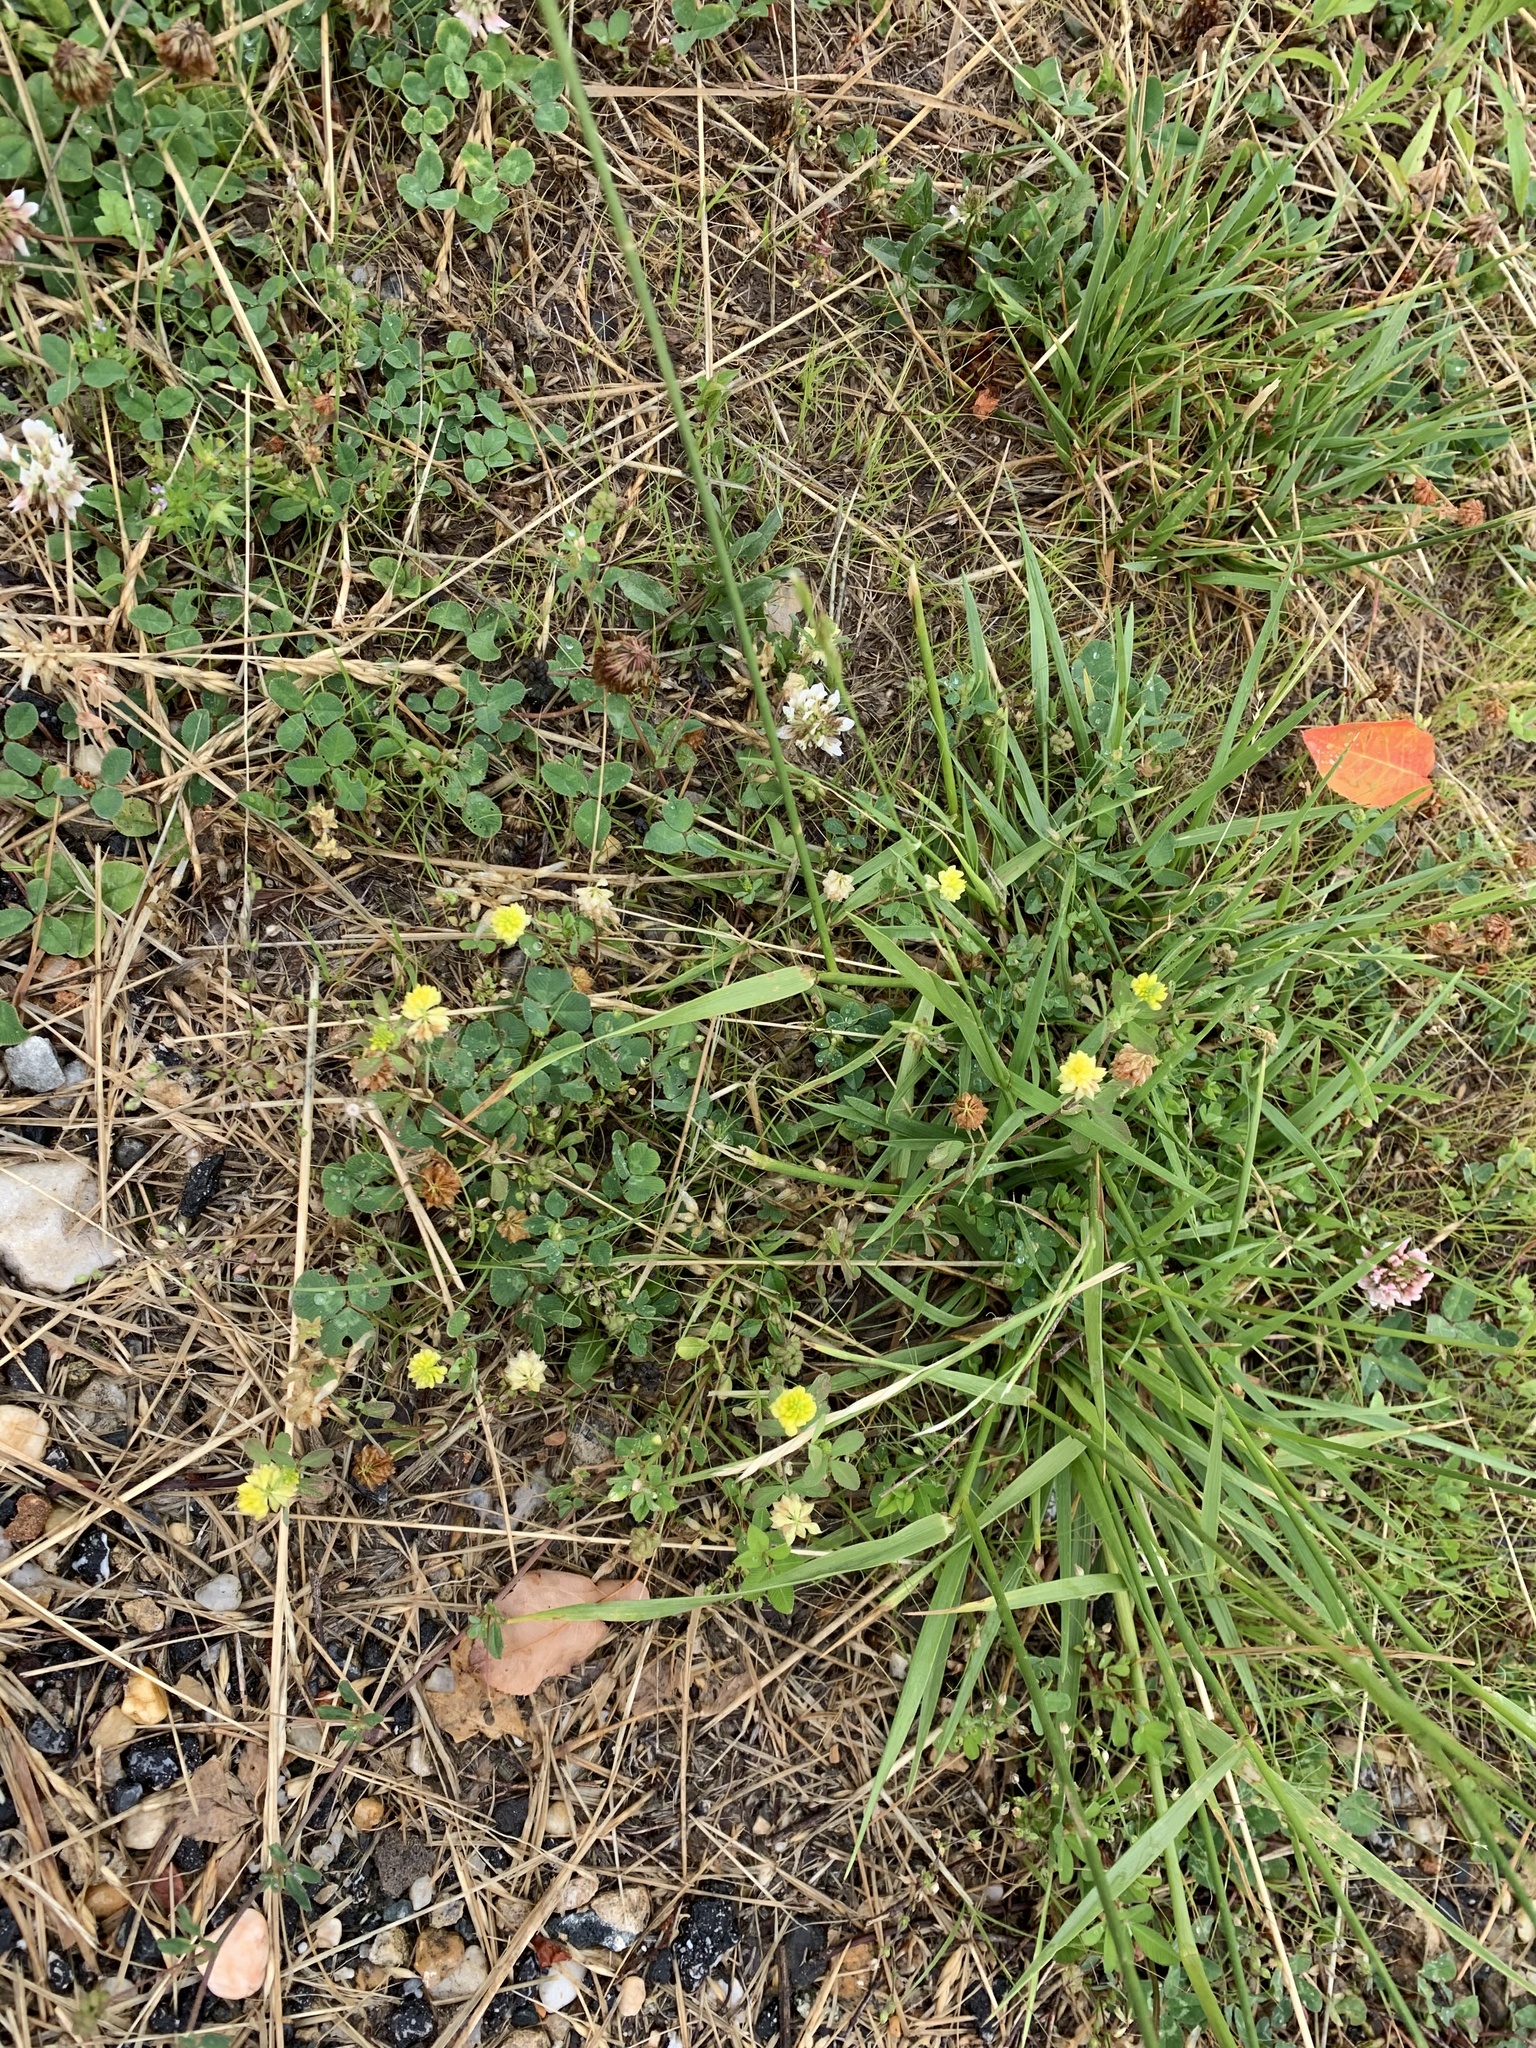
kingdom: Plantae
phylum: Tracheophyta
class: Magnoliopsida
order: Fabales
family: Fabaceae
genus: Trifolium
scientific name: Trifolium campestre
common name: Field clover
